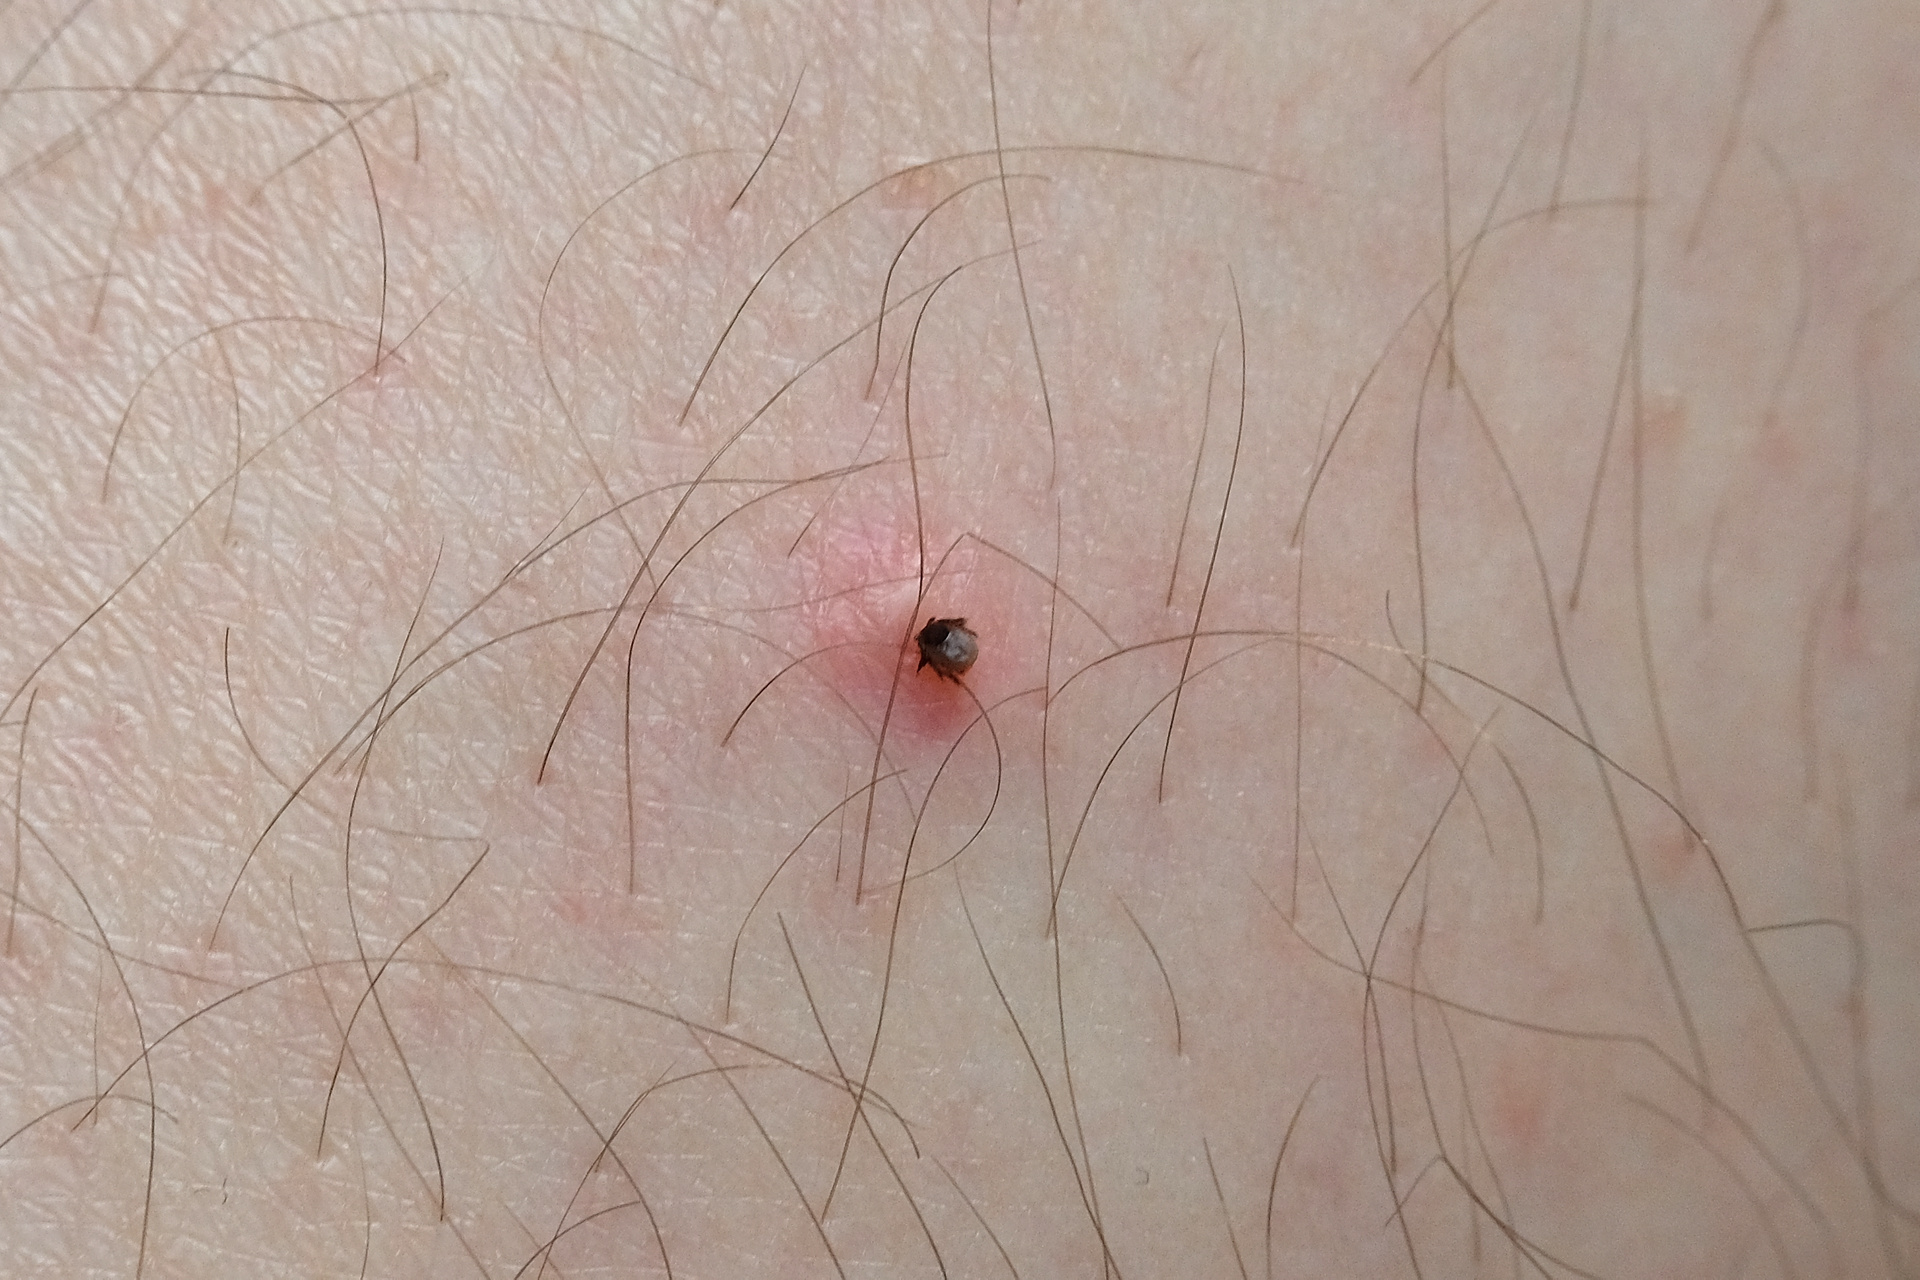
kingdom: Animalia
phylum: Arthropoda
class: Arachnida
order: Ixodida
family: Ixodidae
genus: Ixodes
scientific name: Ixodes ricinus
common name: Castor bean tick
